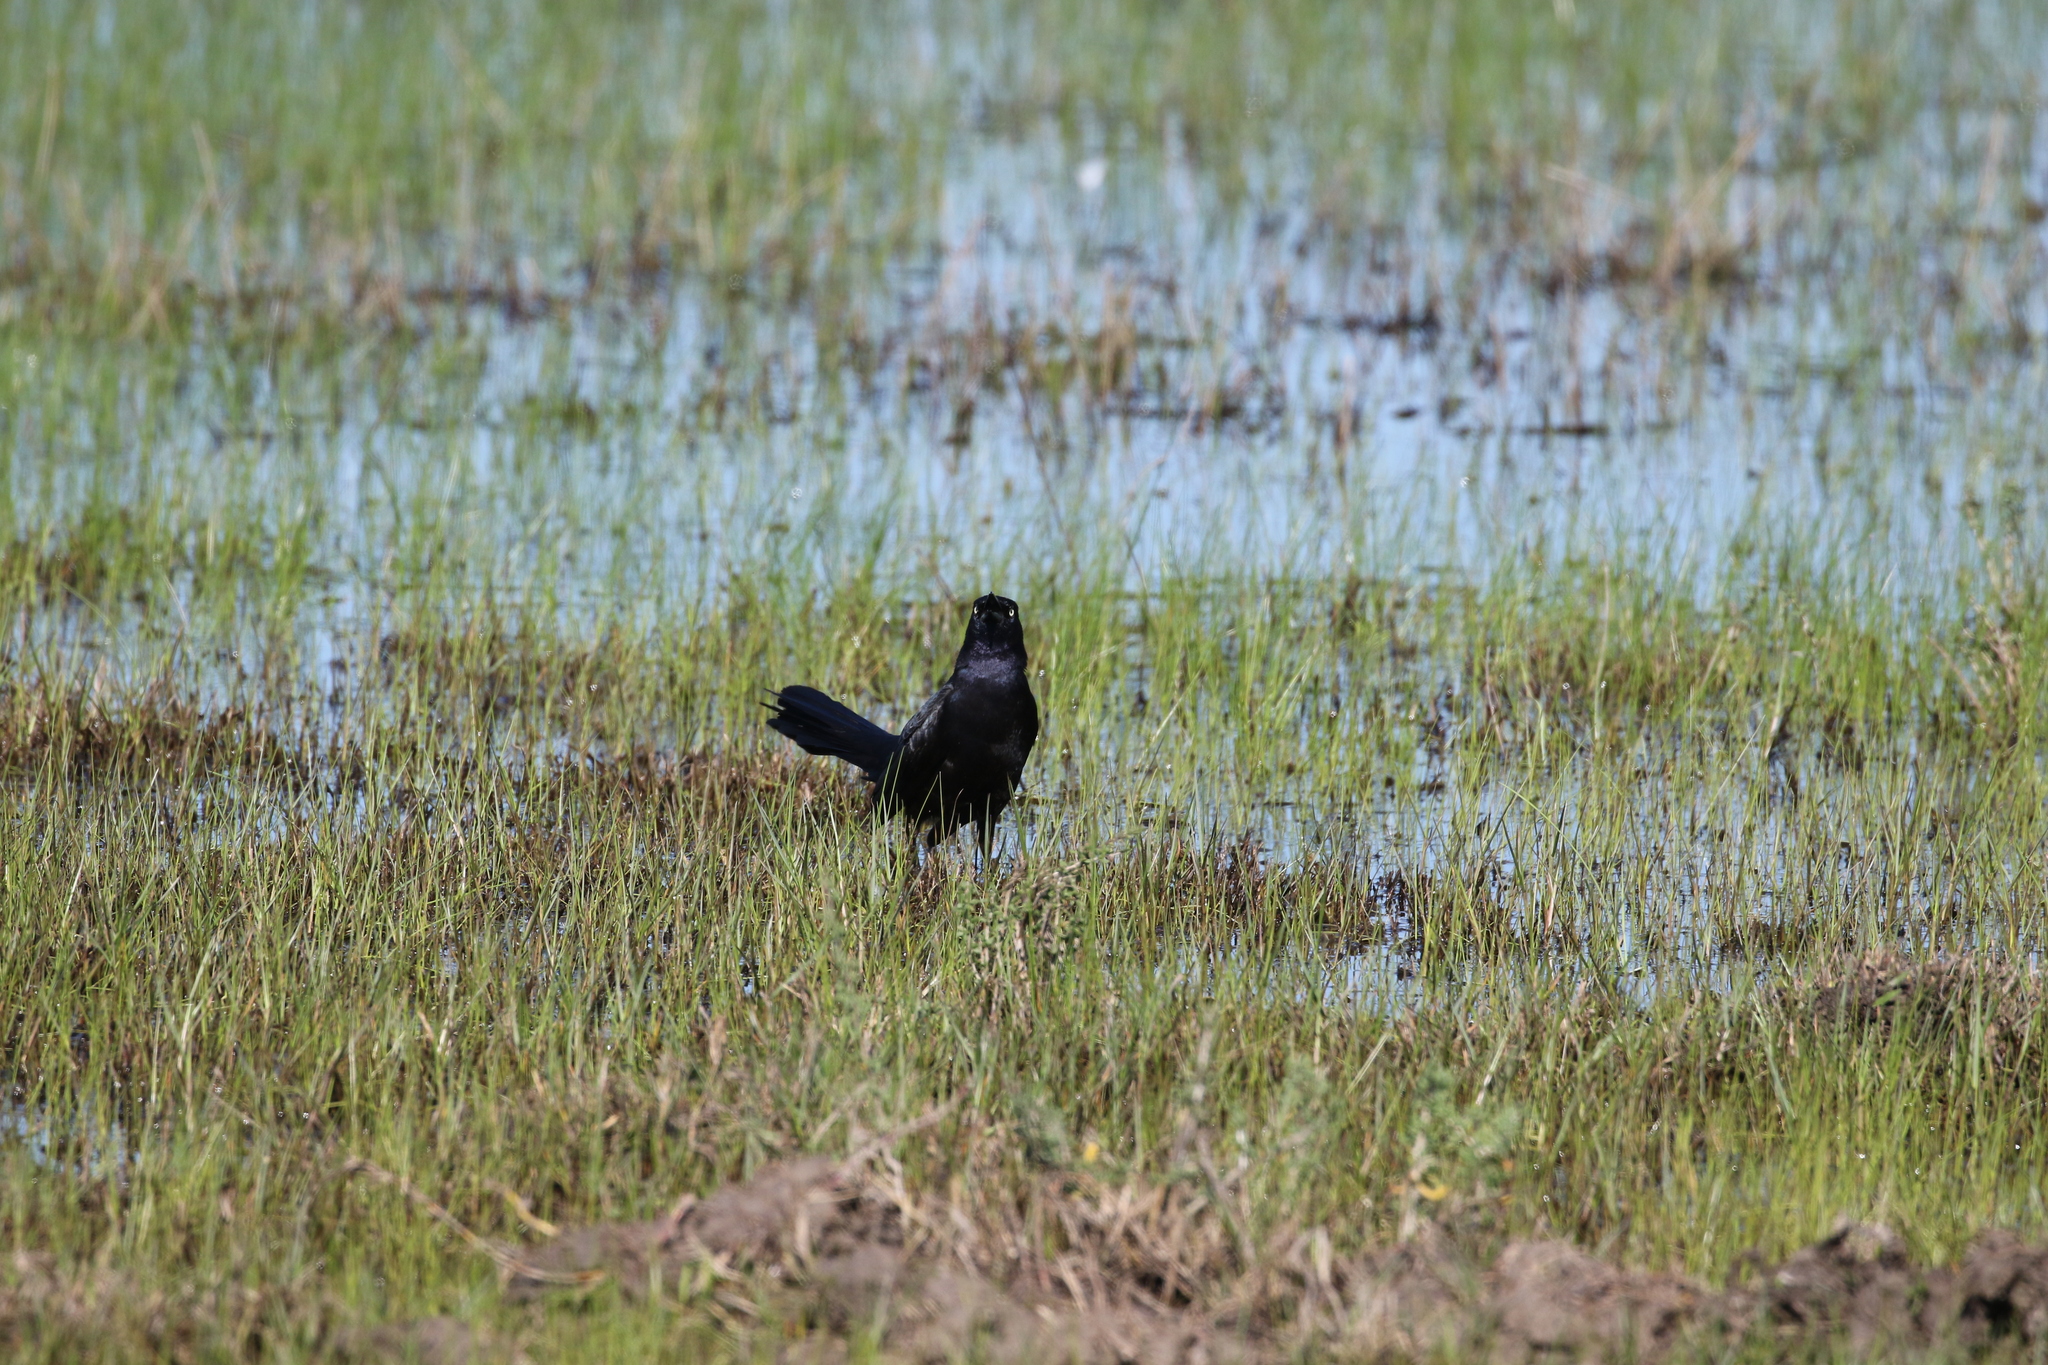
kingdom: Animalia
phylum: Chordata
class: Aves
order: Passeriformes
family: Icteridae
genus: Quiscalus
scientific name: Quiscalus mexicanus
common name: Great-tailed grackle
